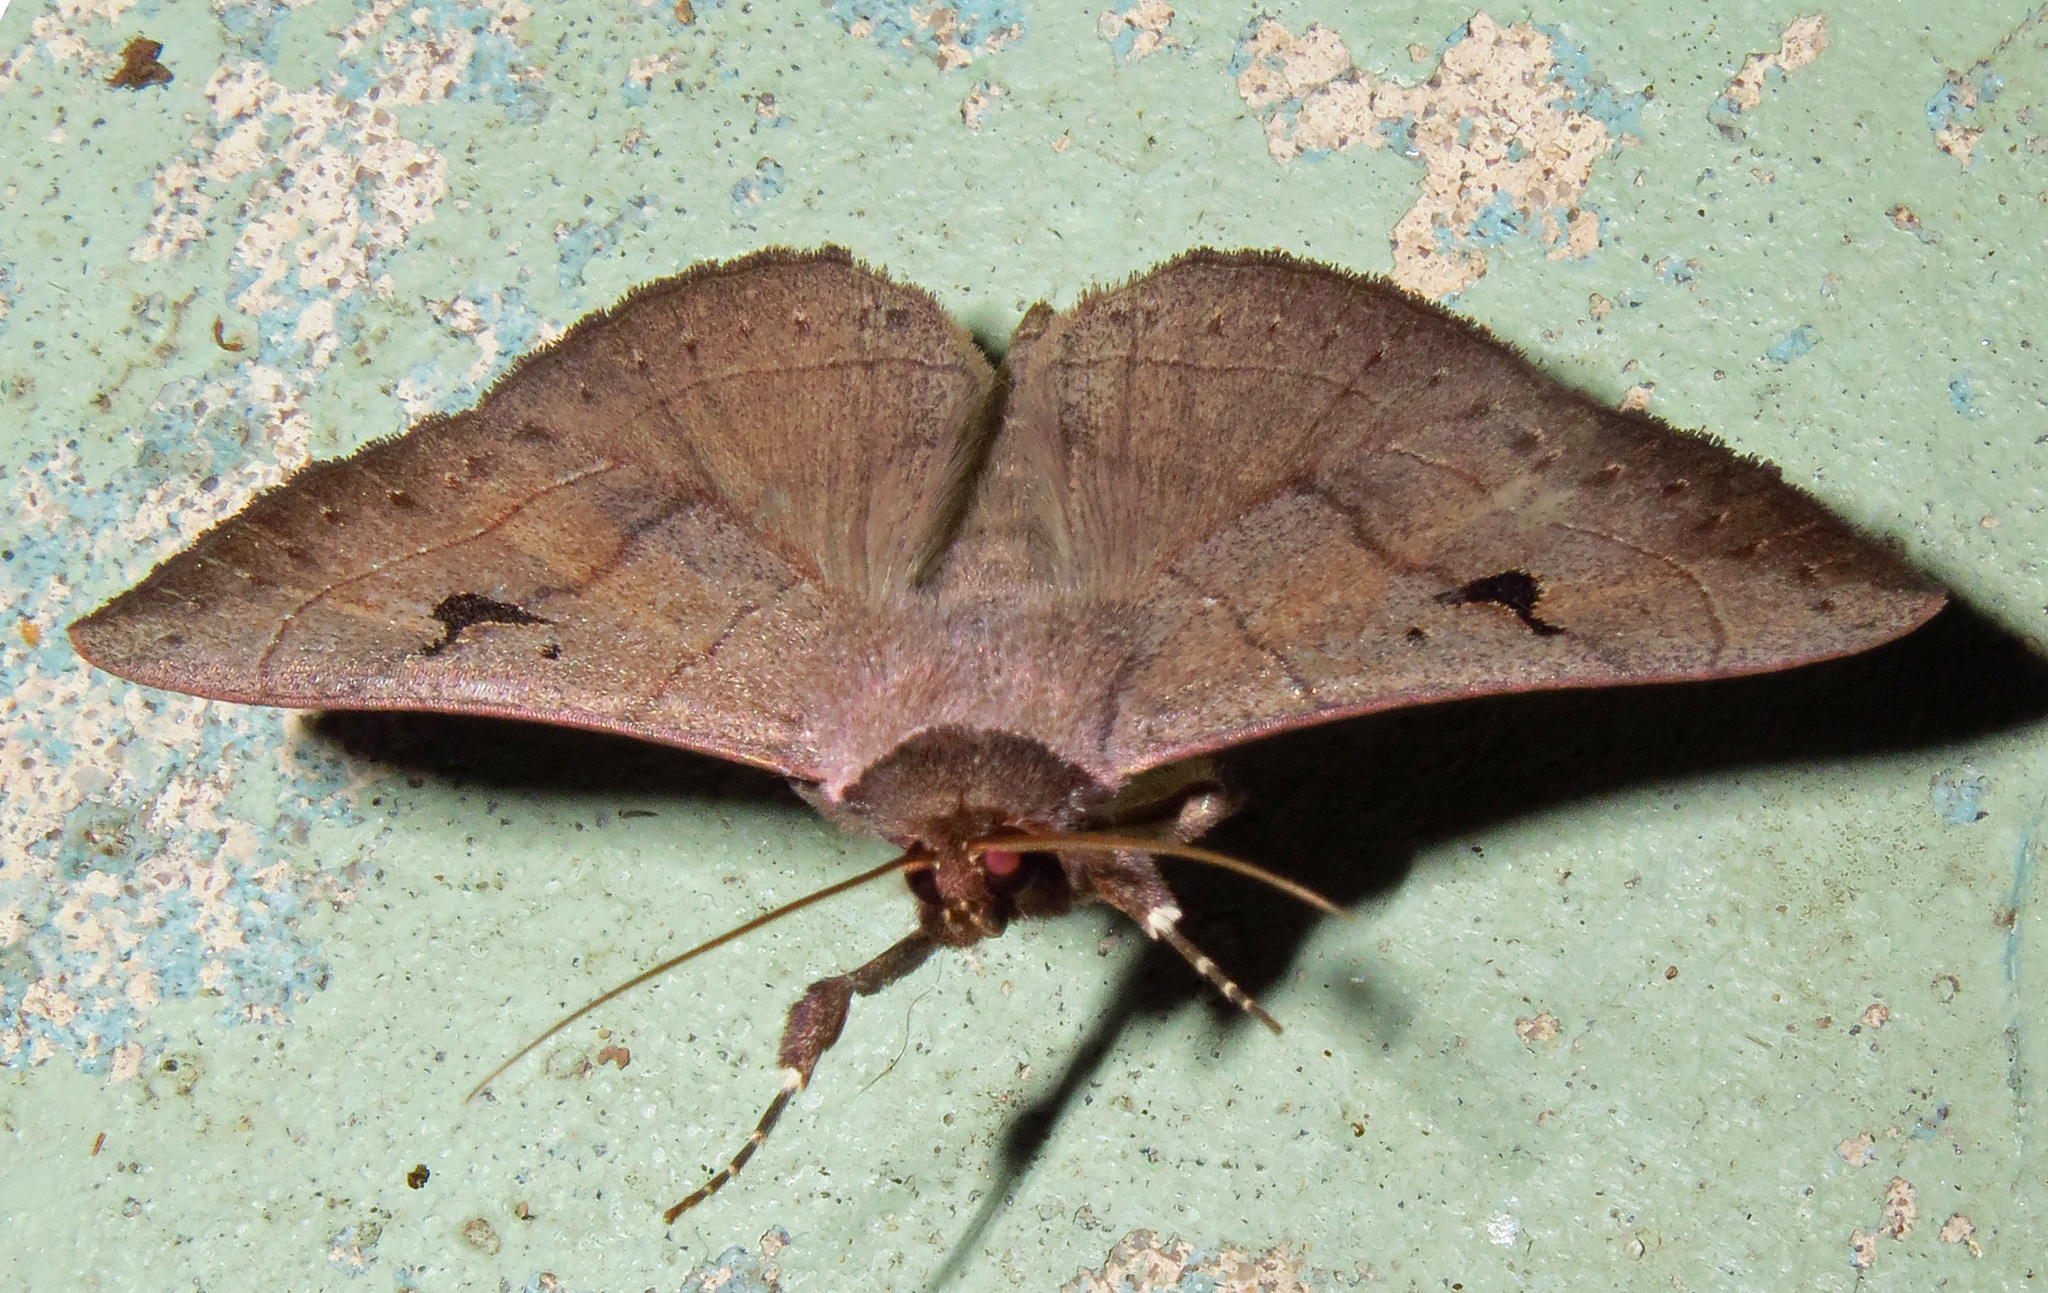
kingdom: Animalia
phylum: Arthropoda
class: Insecta
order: Lepidoptera
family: Erebidae
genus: Panopoda
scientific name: Panopoda carneicosta
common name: Brown panopoda moth
